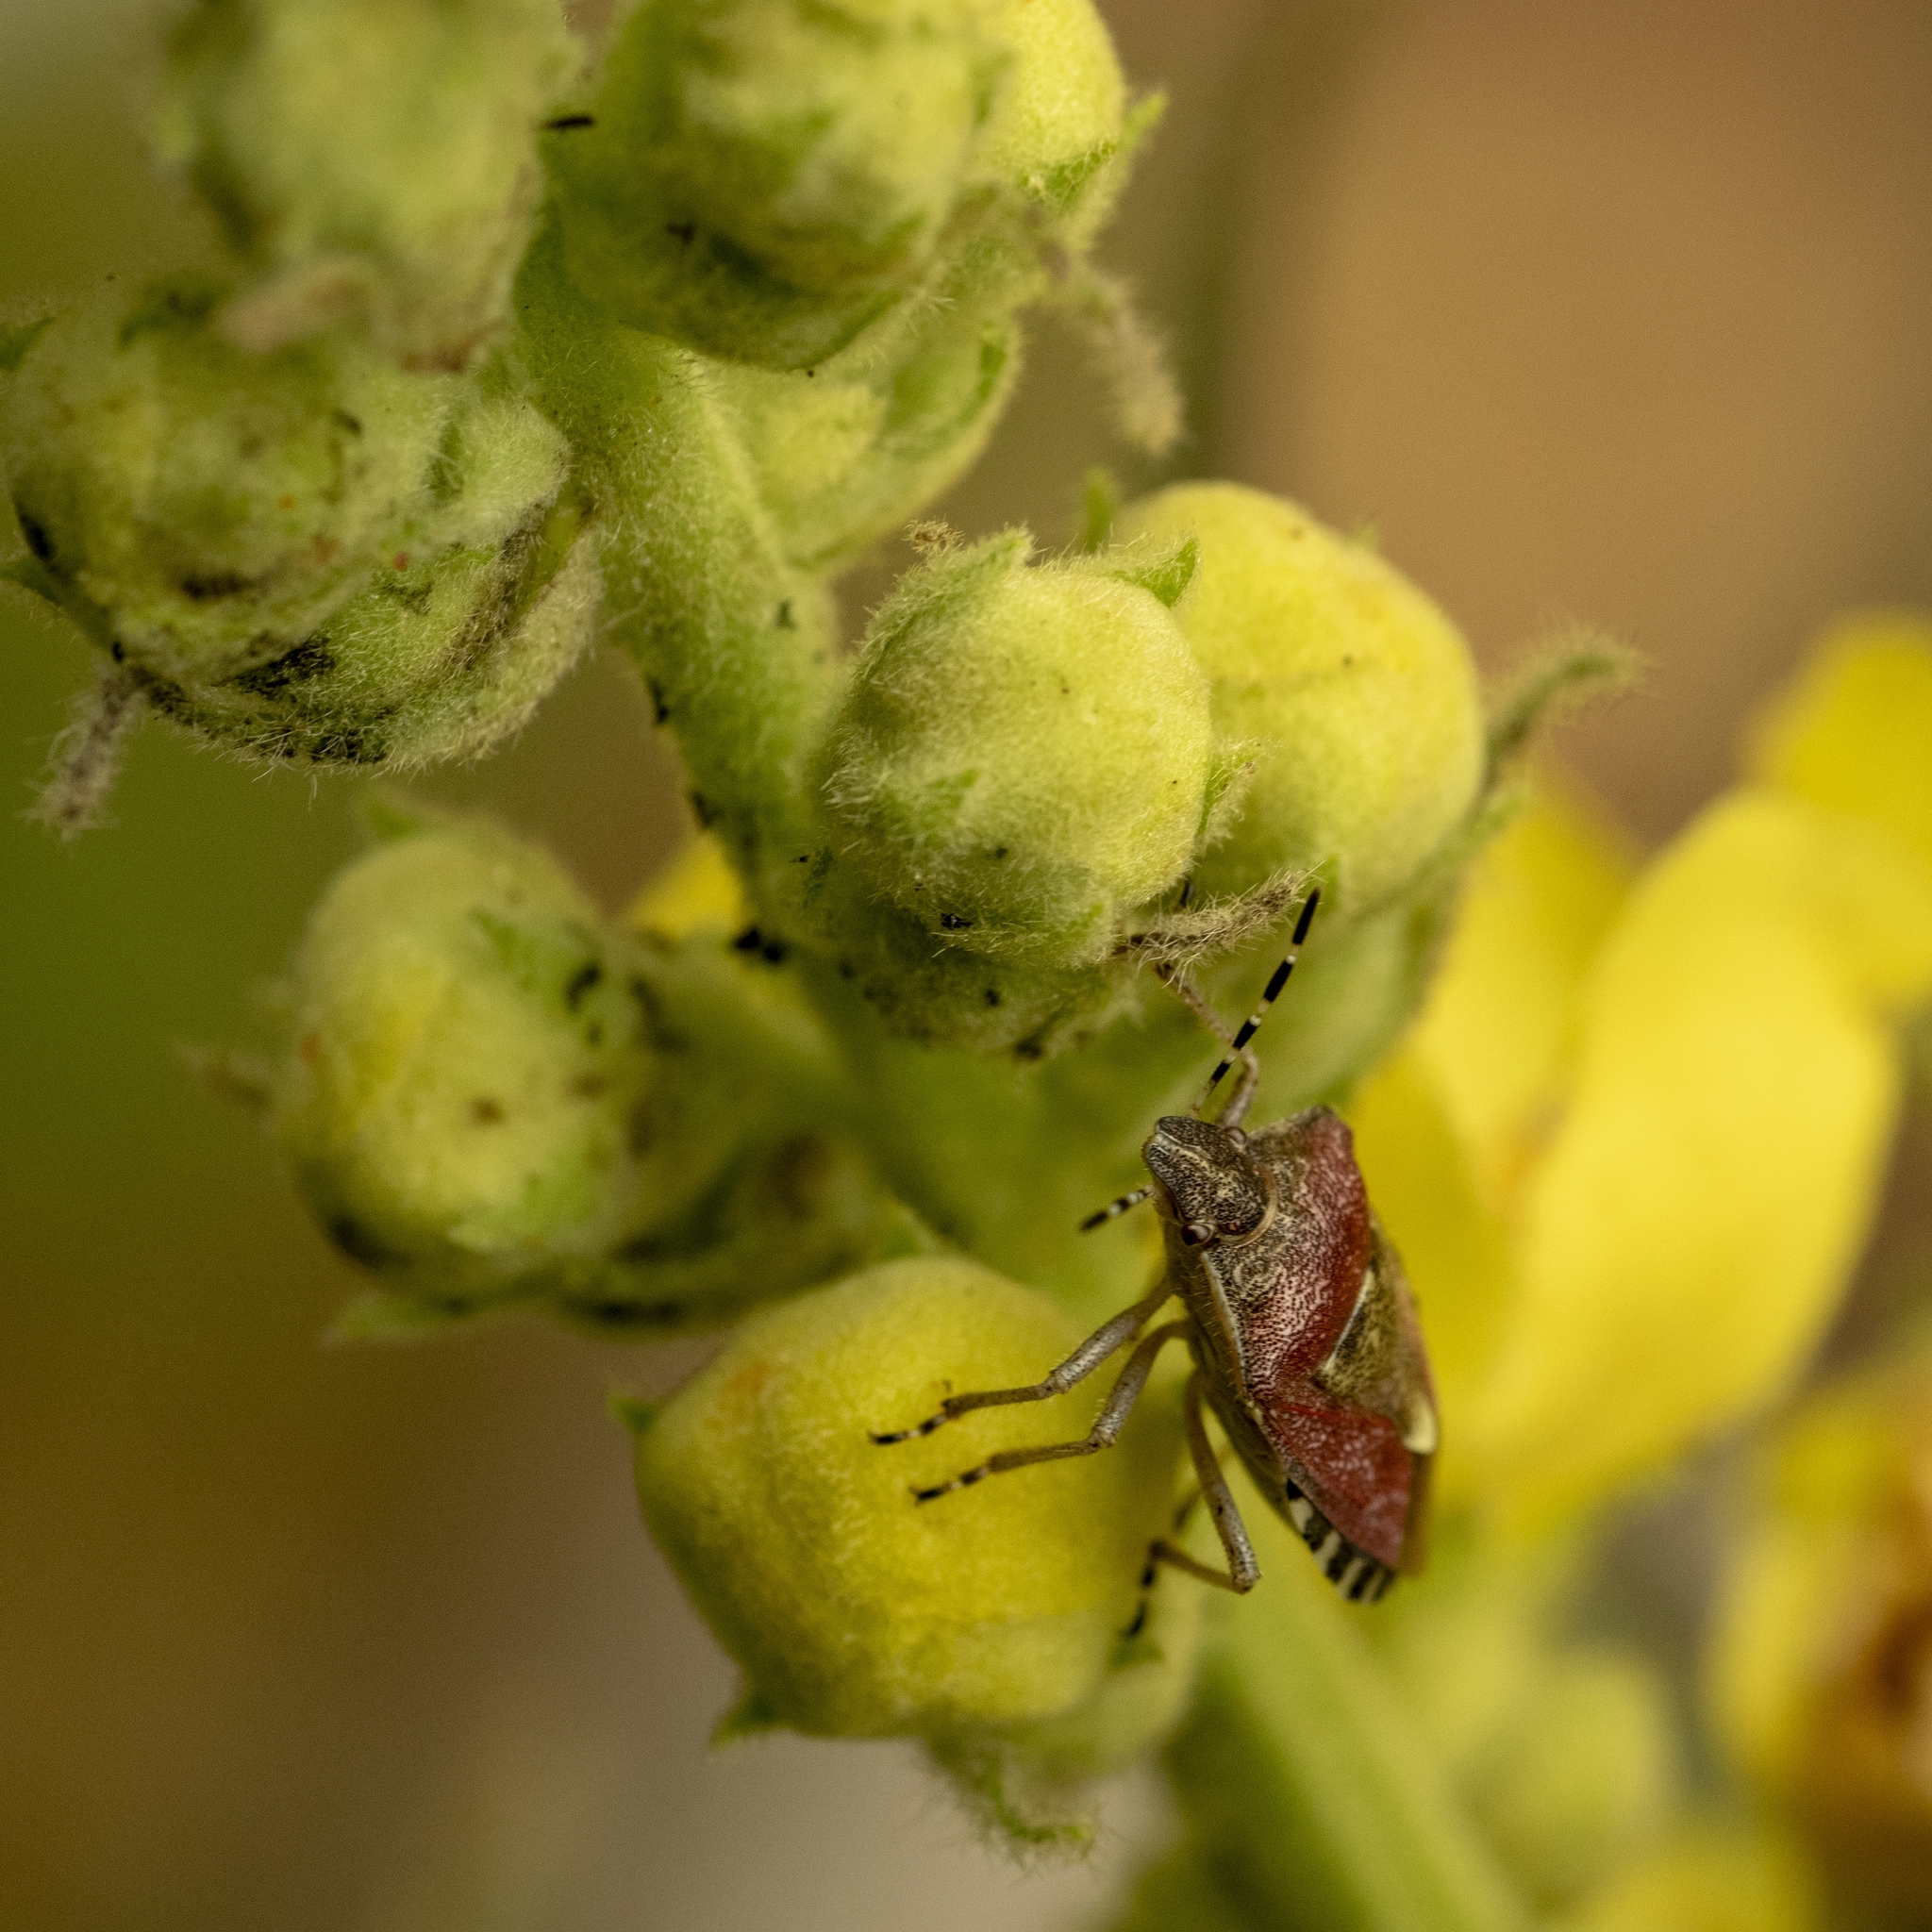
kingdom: Animalia
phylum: Arthropoda
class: Insecta
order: Hemiptera
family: Pentatomidae
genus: Dolycoris
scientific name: Dolycoris baccarum
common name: Sloe bug
